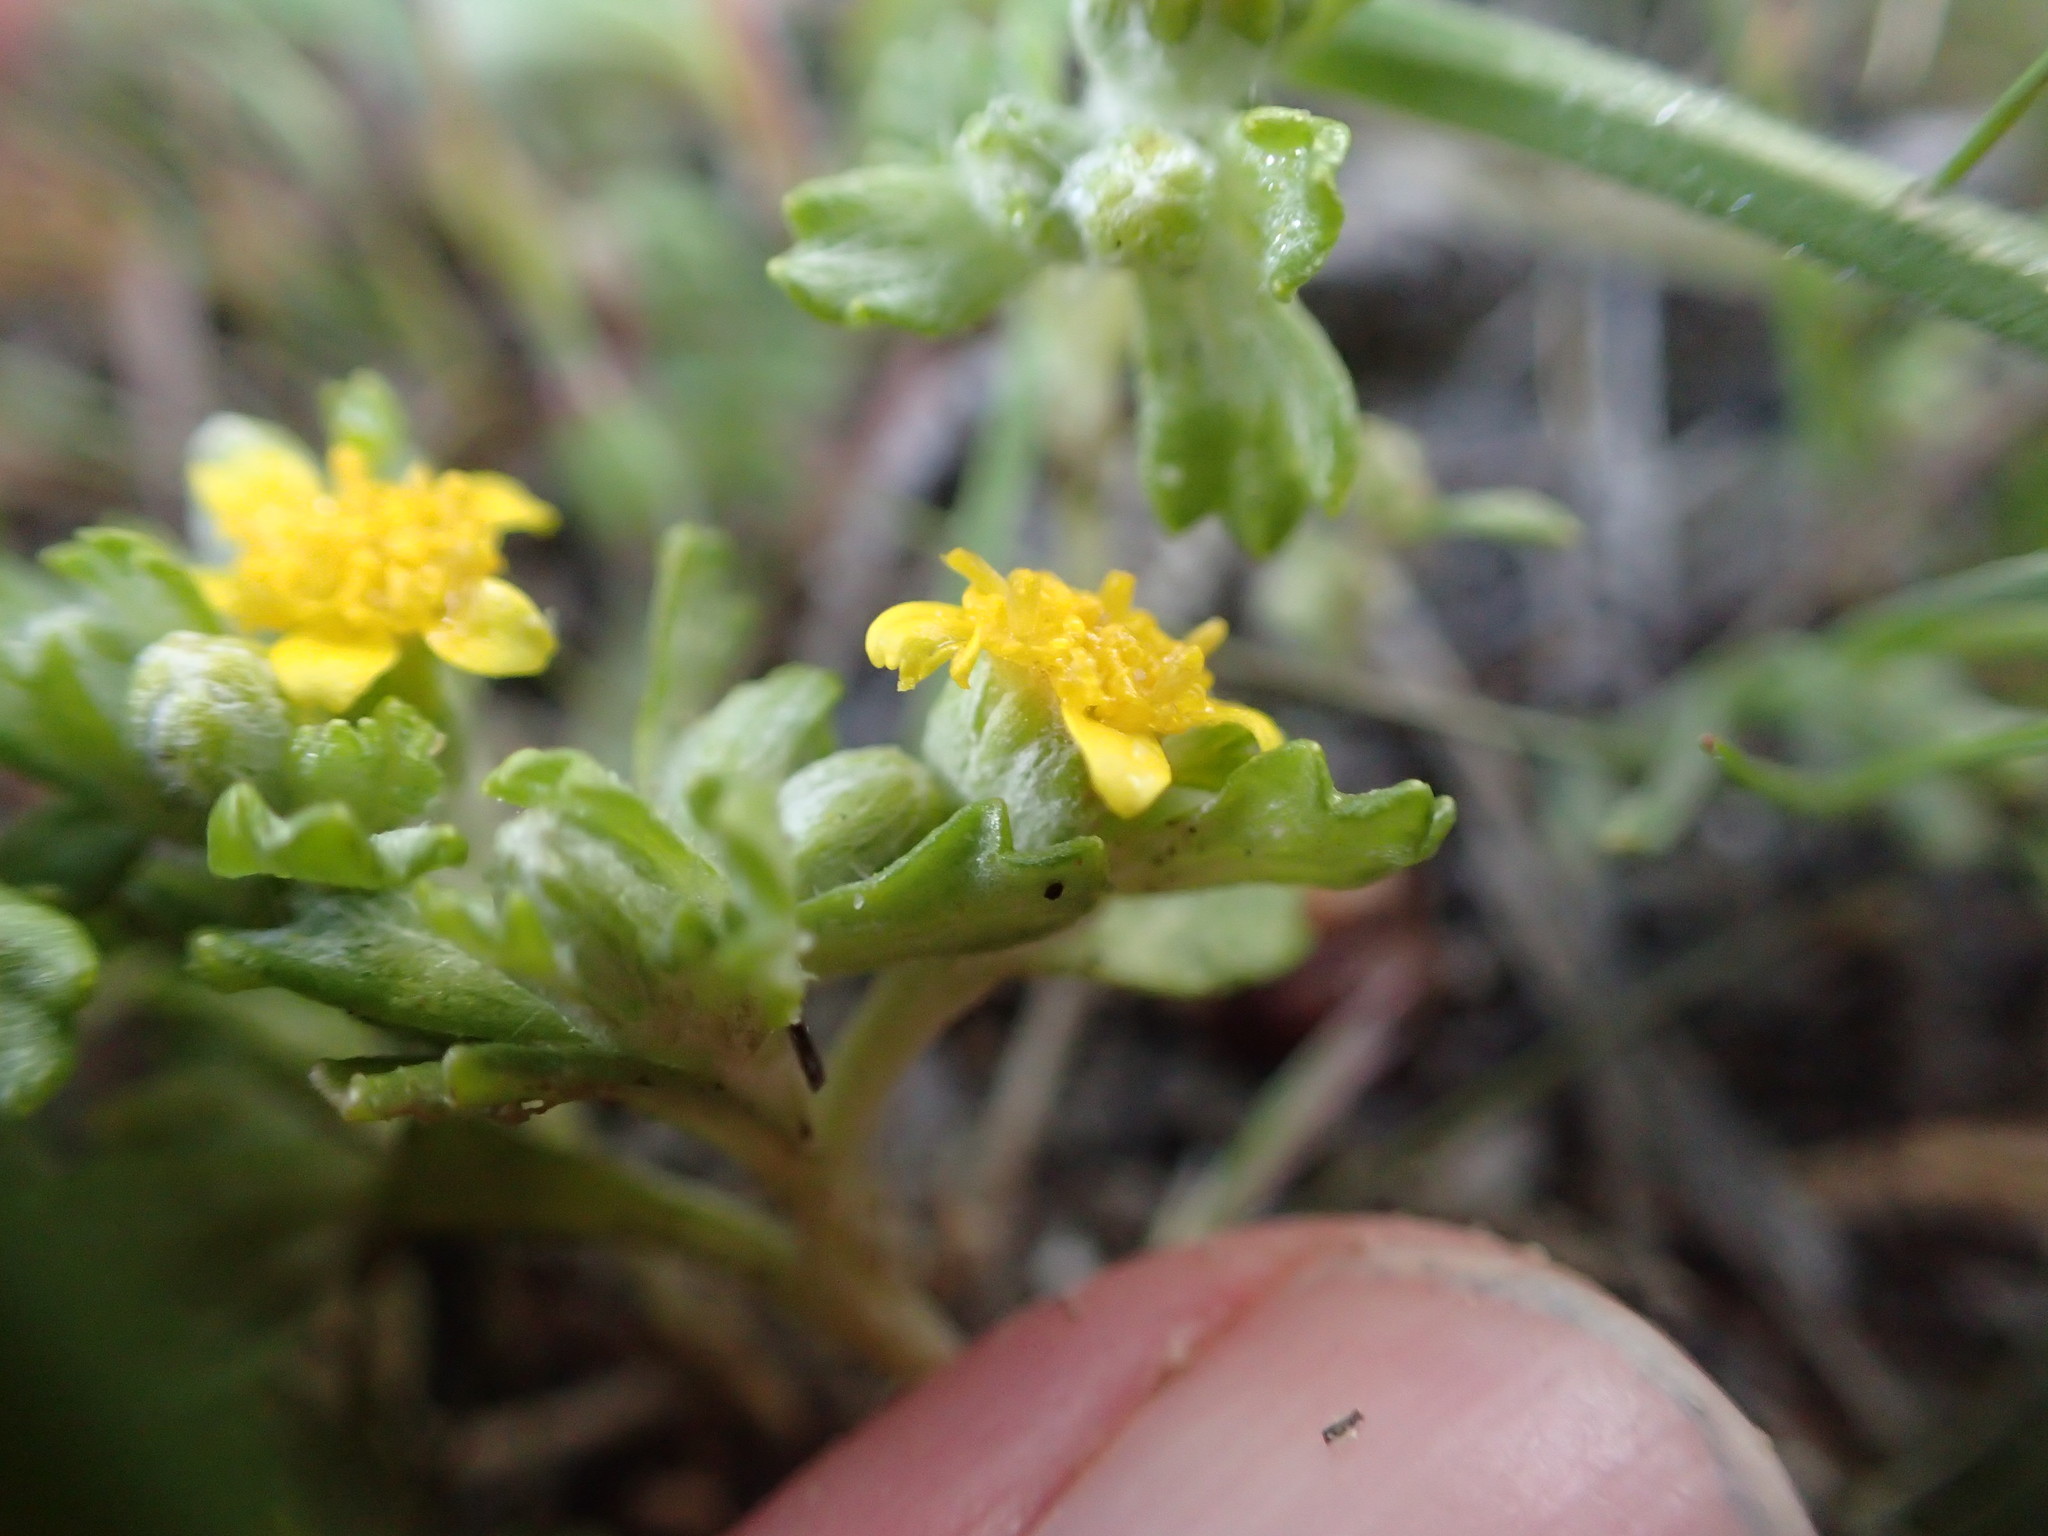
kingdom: Plantae
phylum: Tracheophyta
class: Magnoliopsida
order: Asterales
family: Asteraceae
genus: Eriophyllum
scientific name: Eriophyllum multicaule
